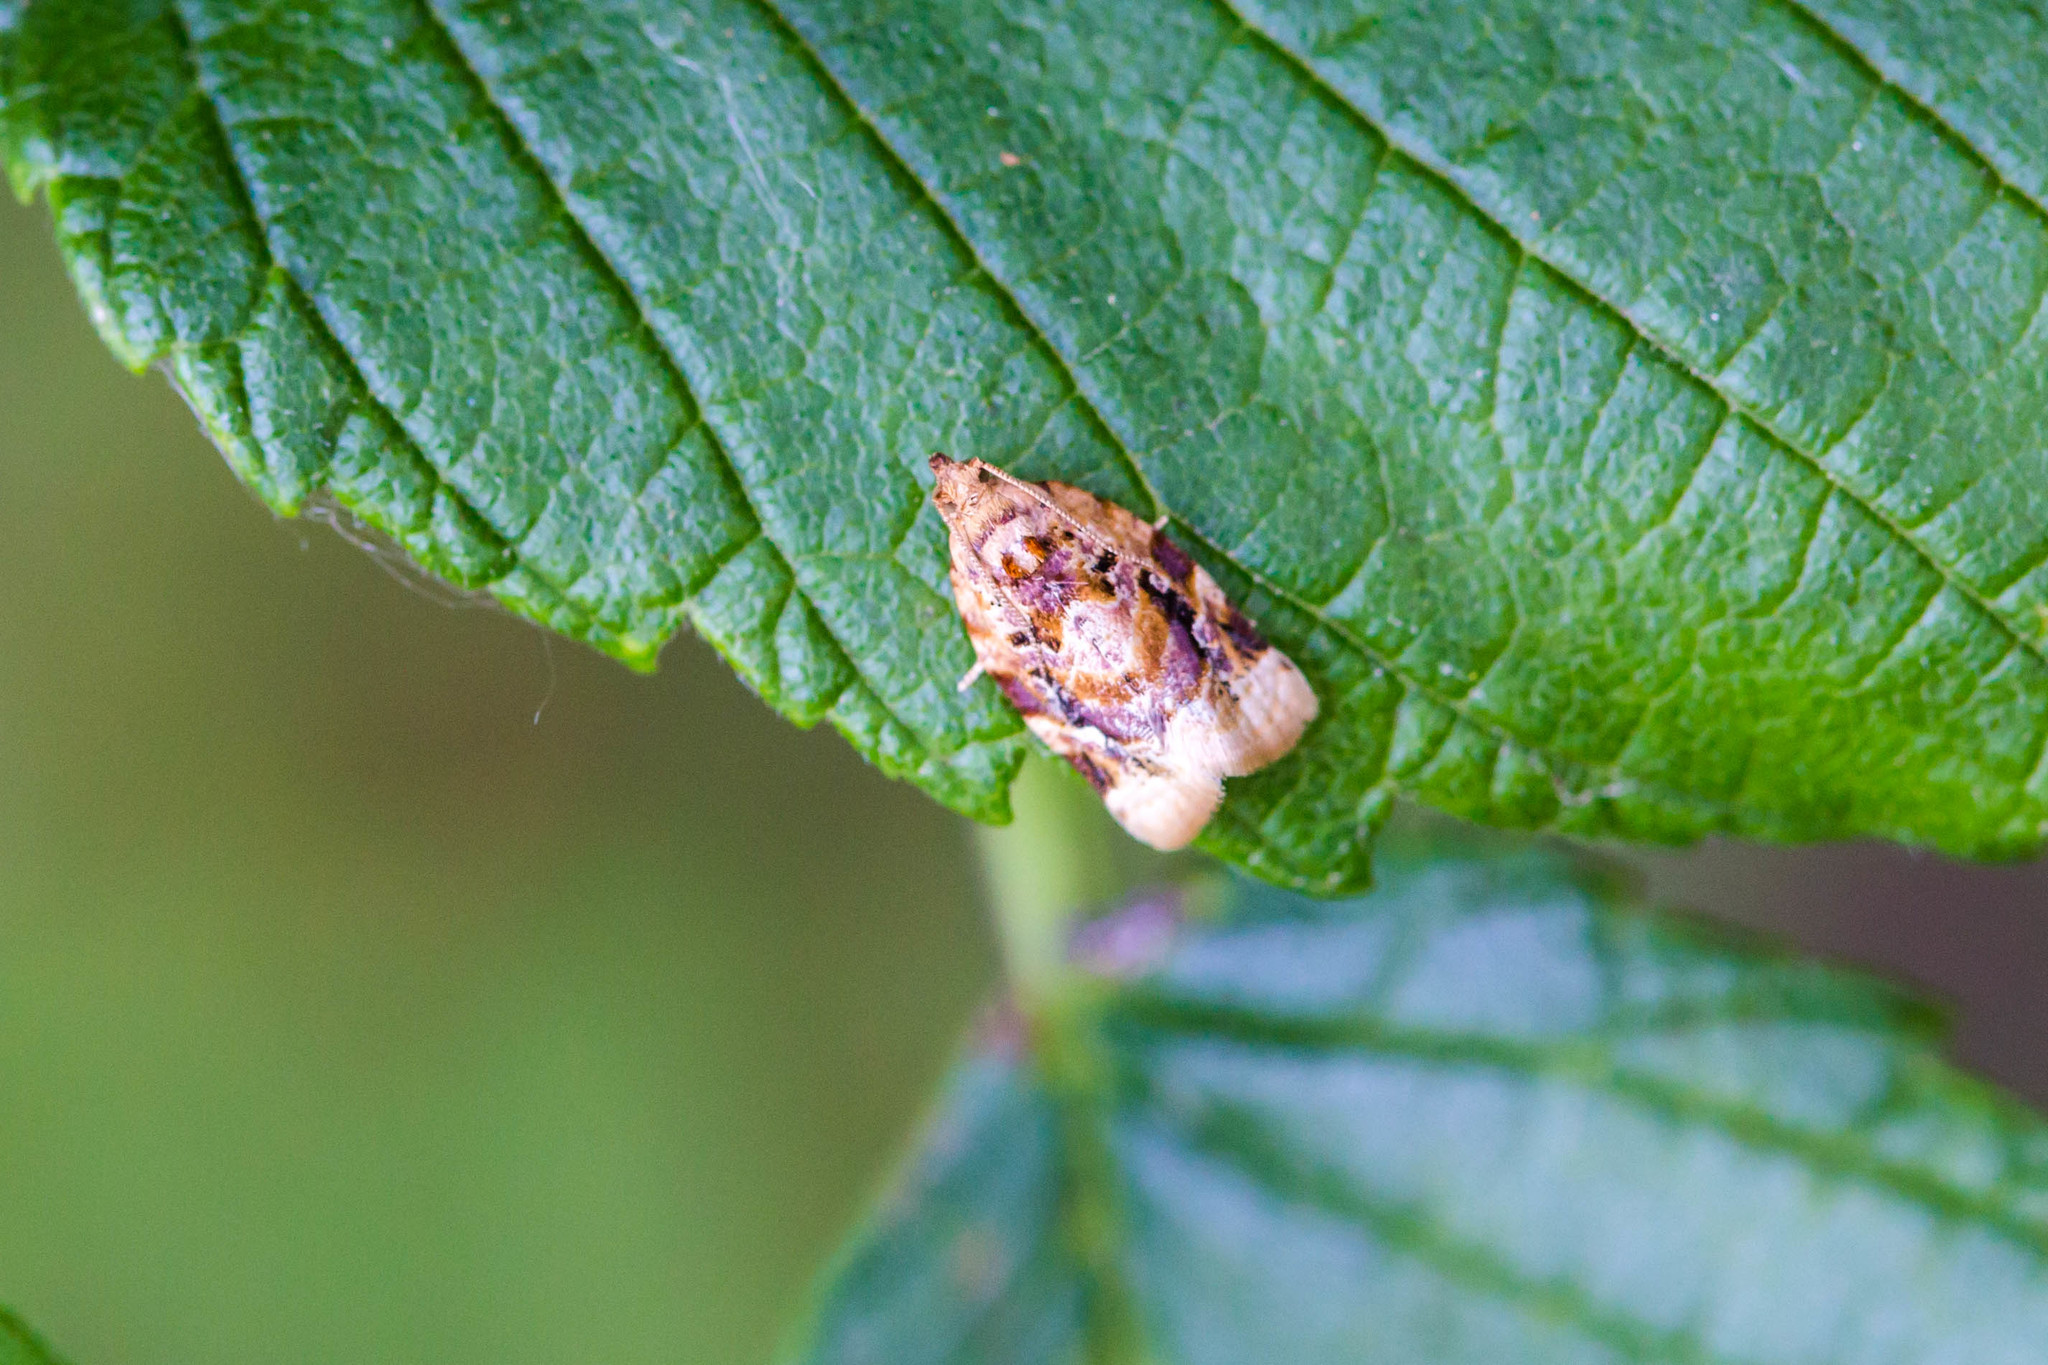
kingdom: Animalia
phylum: Arthropoda
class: Insecta
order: Lepidoptera
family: Tortricidae
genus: Argyrotaenia
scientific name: Argyrotaenia velutinana
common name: Red-banded leafroller moth
